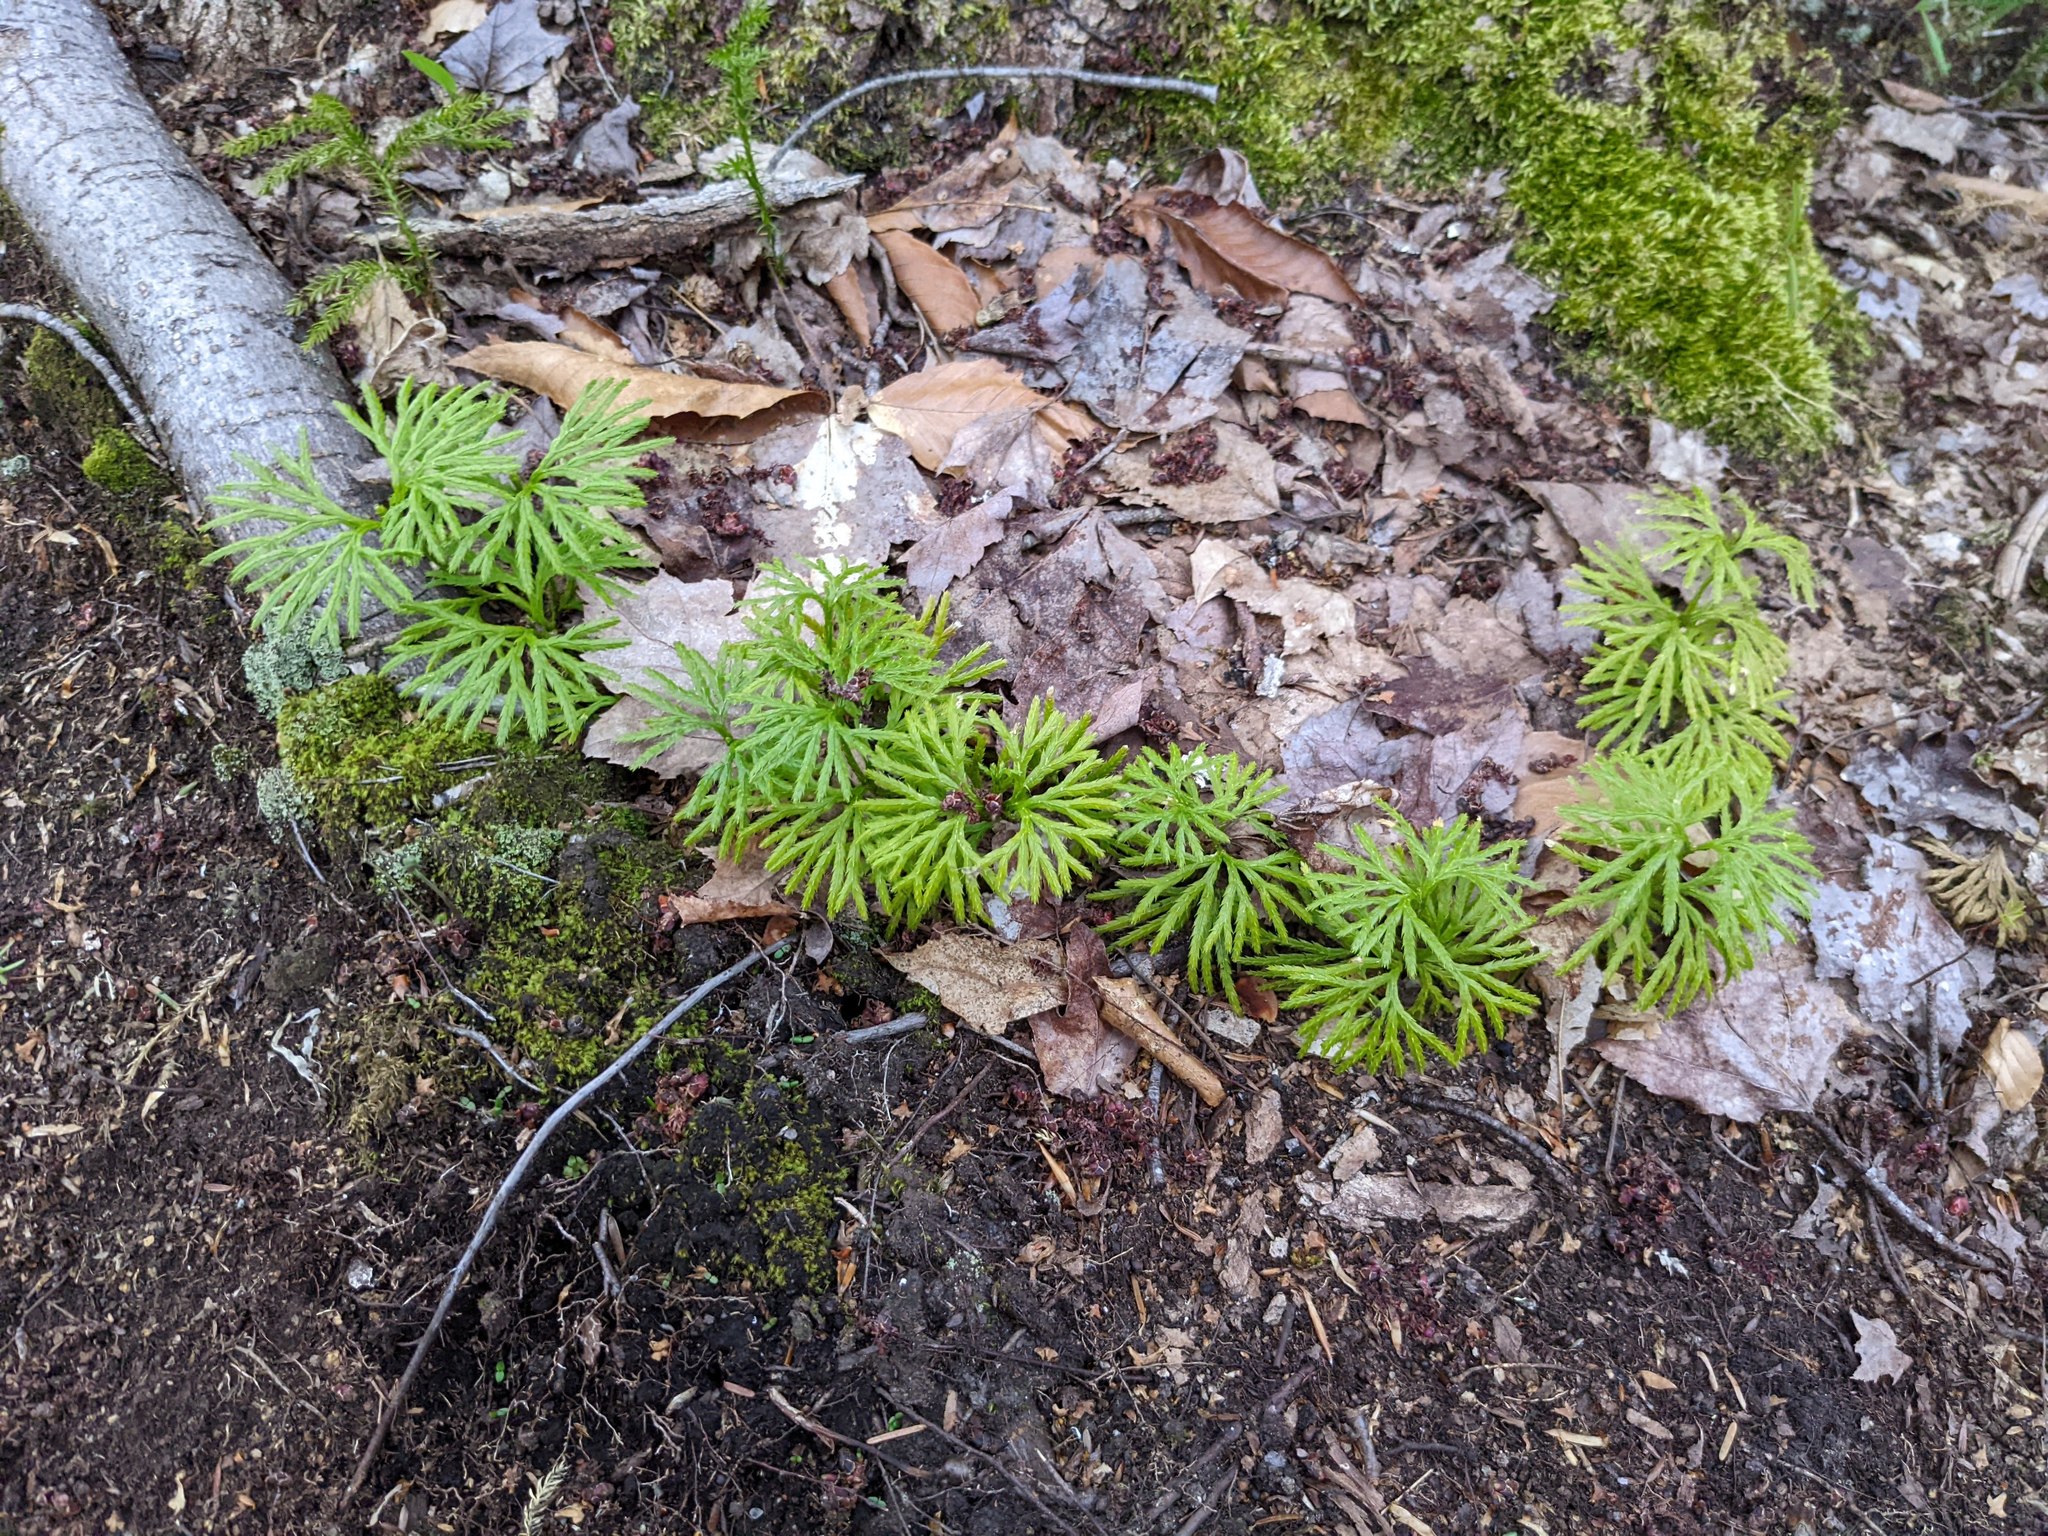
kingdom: Plantae
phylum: Tracheophyta
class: Lycopodiopsida
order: Lycopodiales
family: Lycopodiaceae
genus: Diphasiastrum
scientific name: Diphasiastrum digitatum
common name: Southern running-pine
